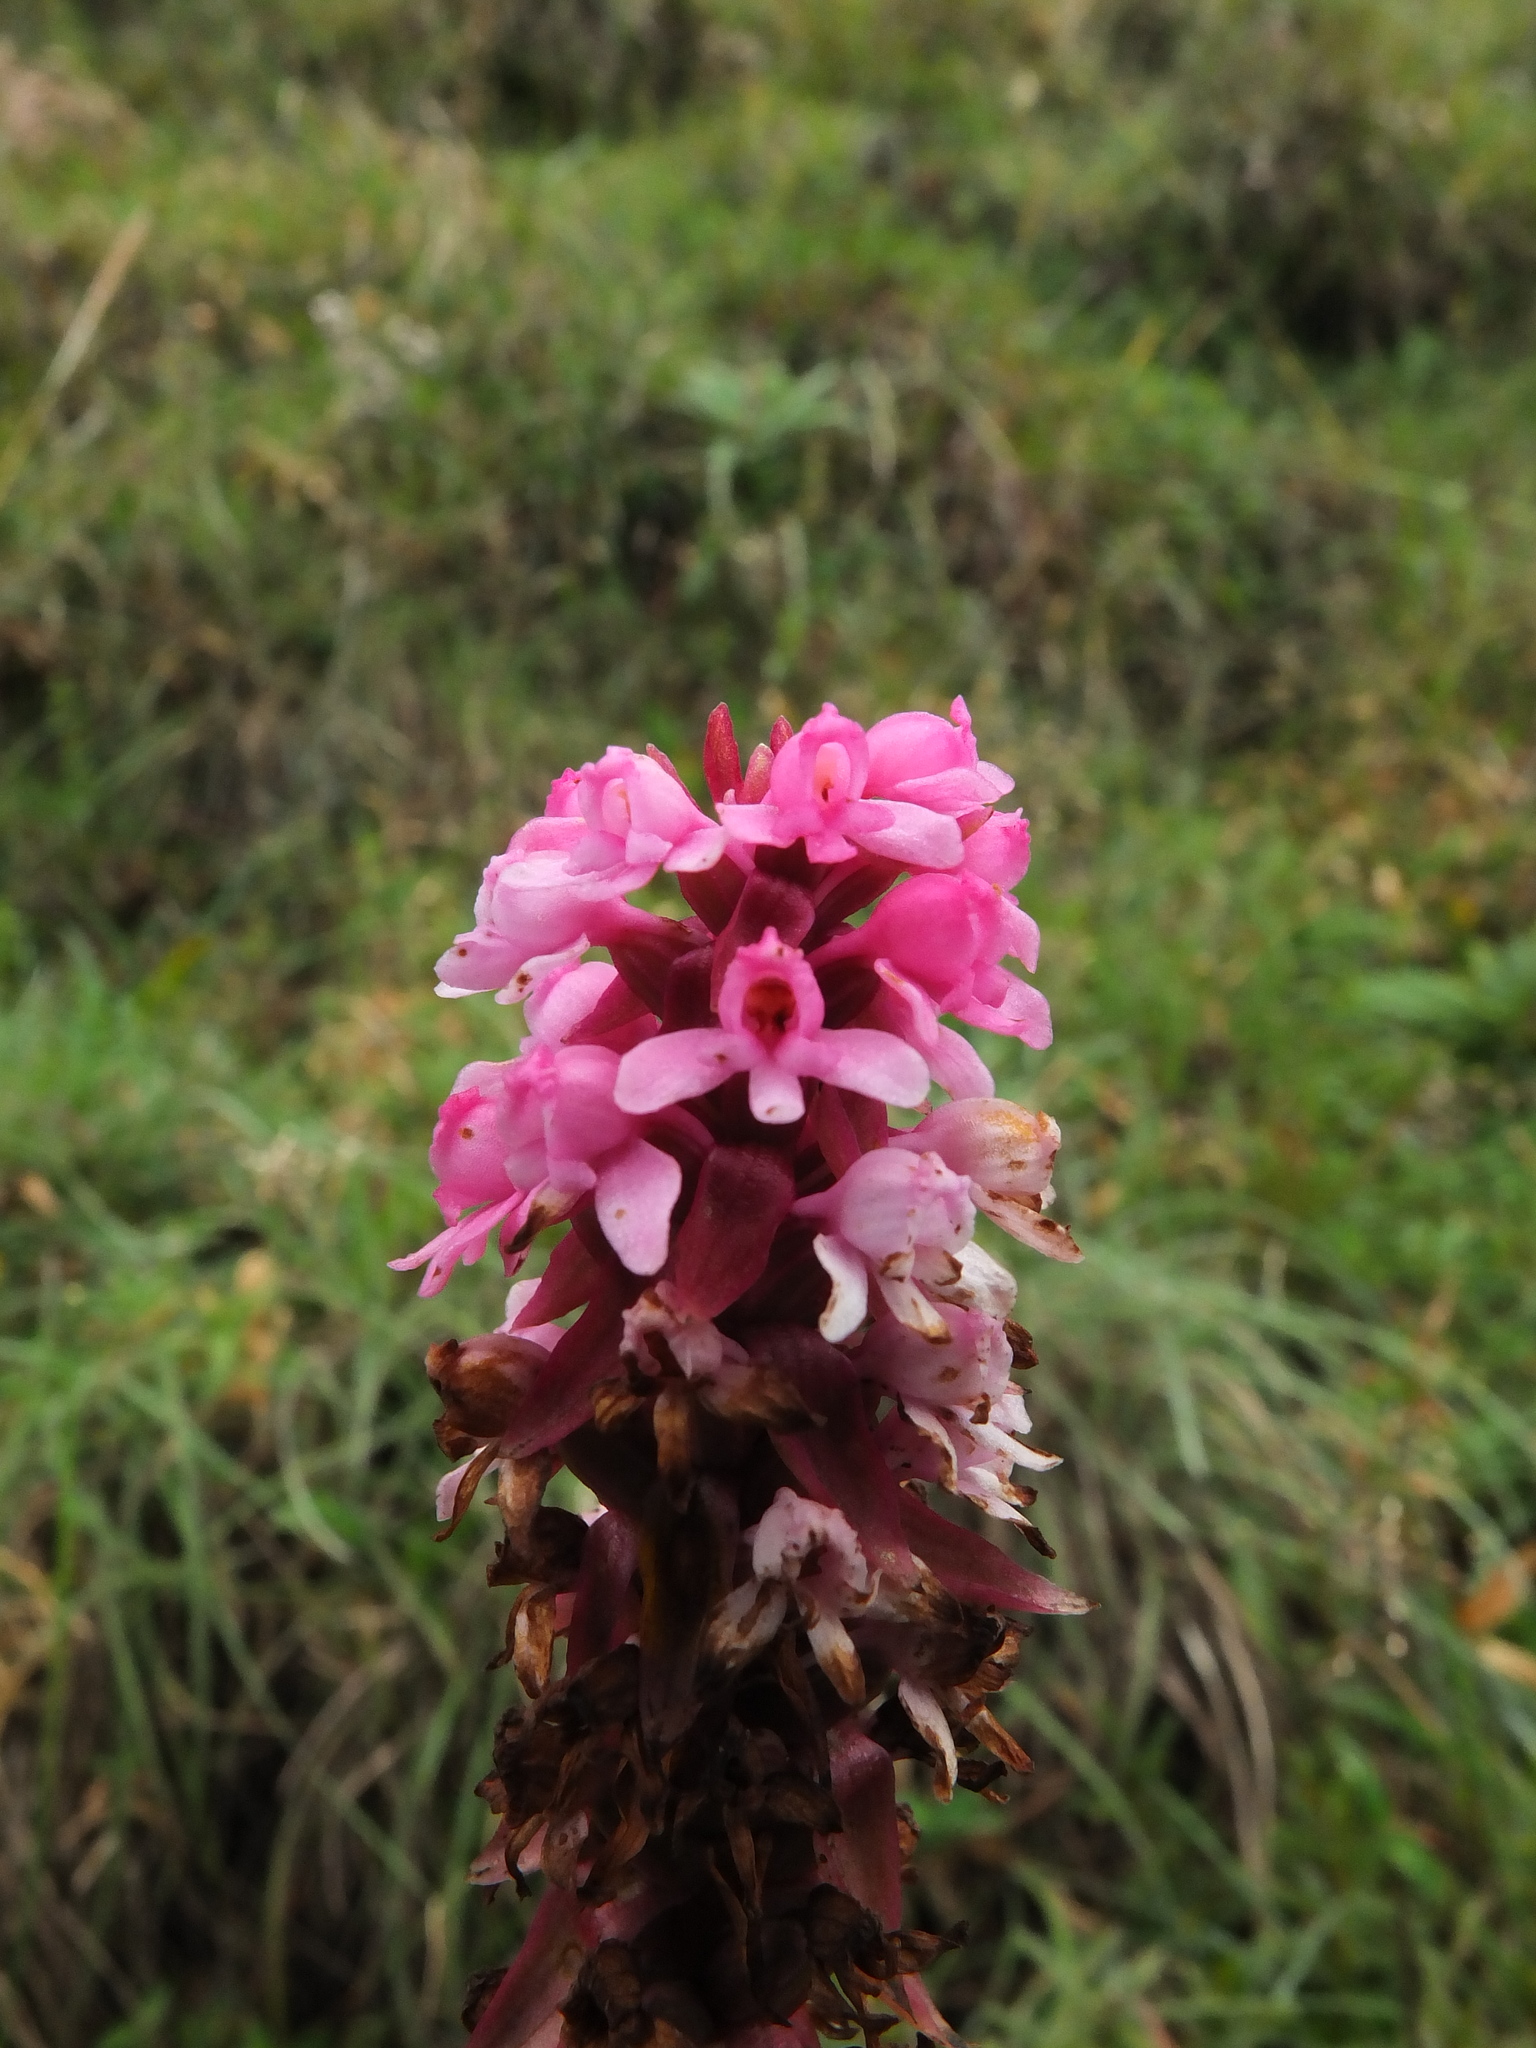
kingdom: Plantae
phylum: Tracheophyta
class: Liliopsida
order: Asparagales
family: Orchidaceae
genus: Satyrium
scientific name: Satyrium nepalense
